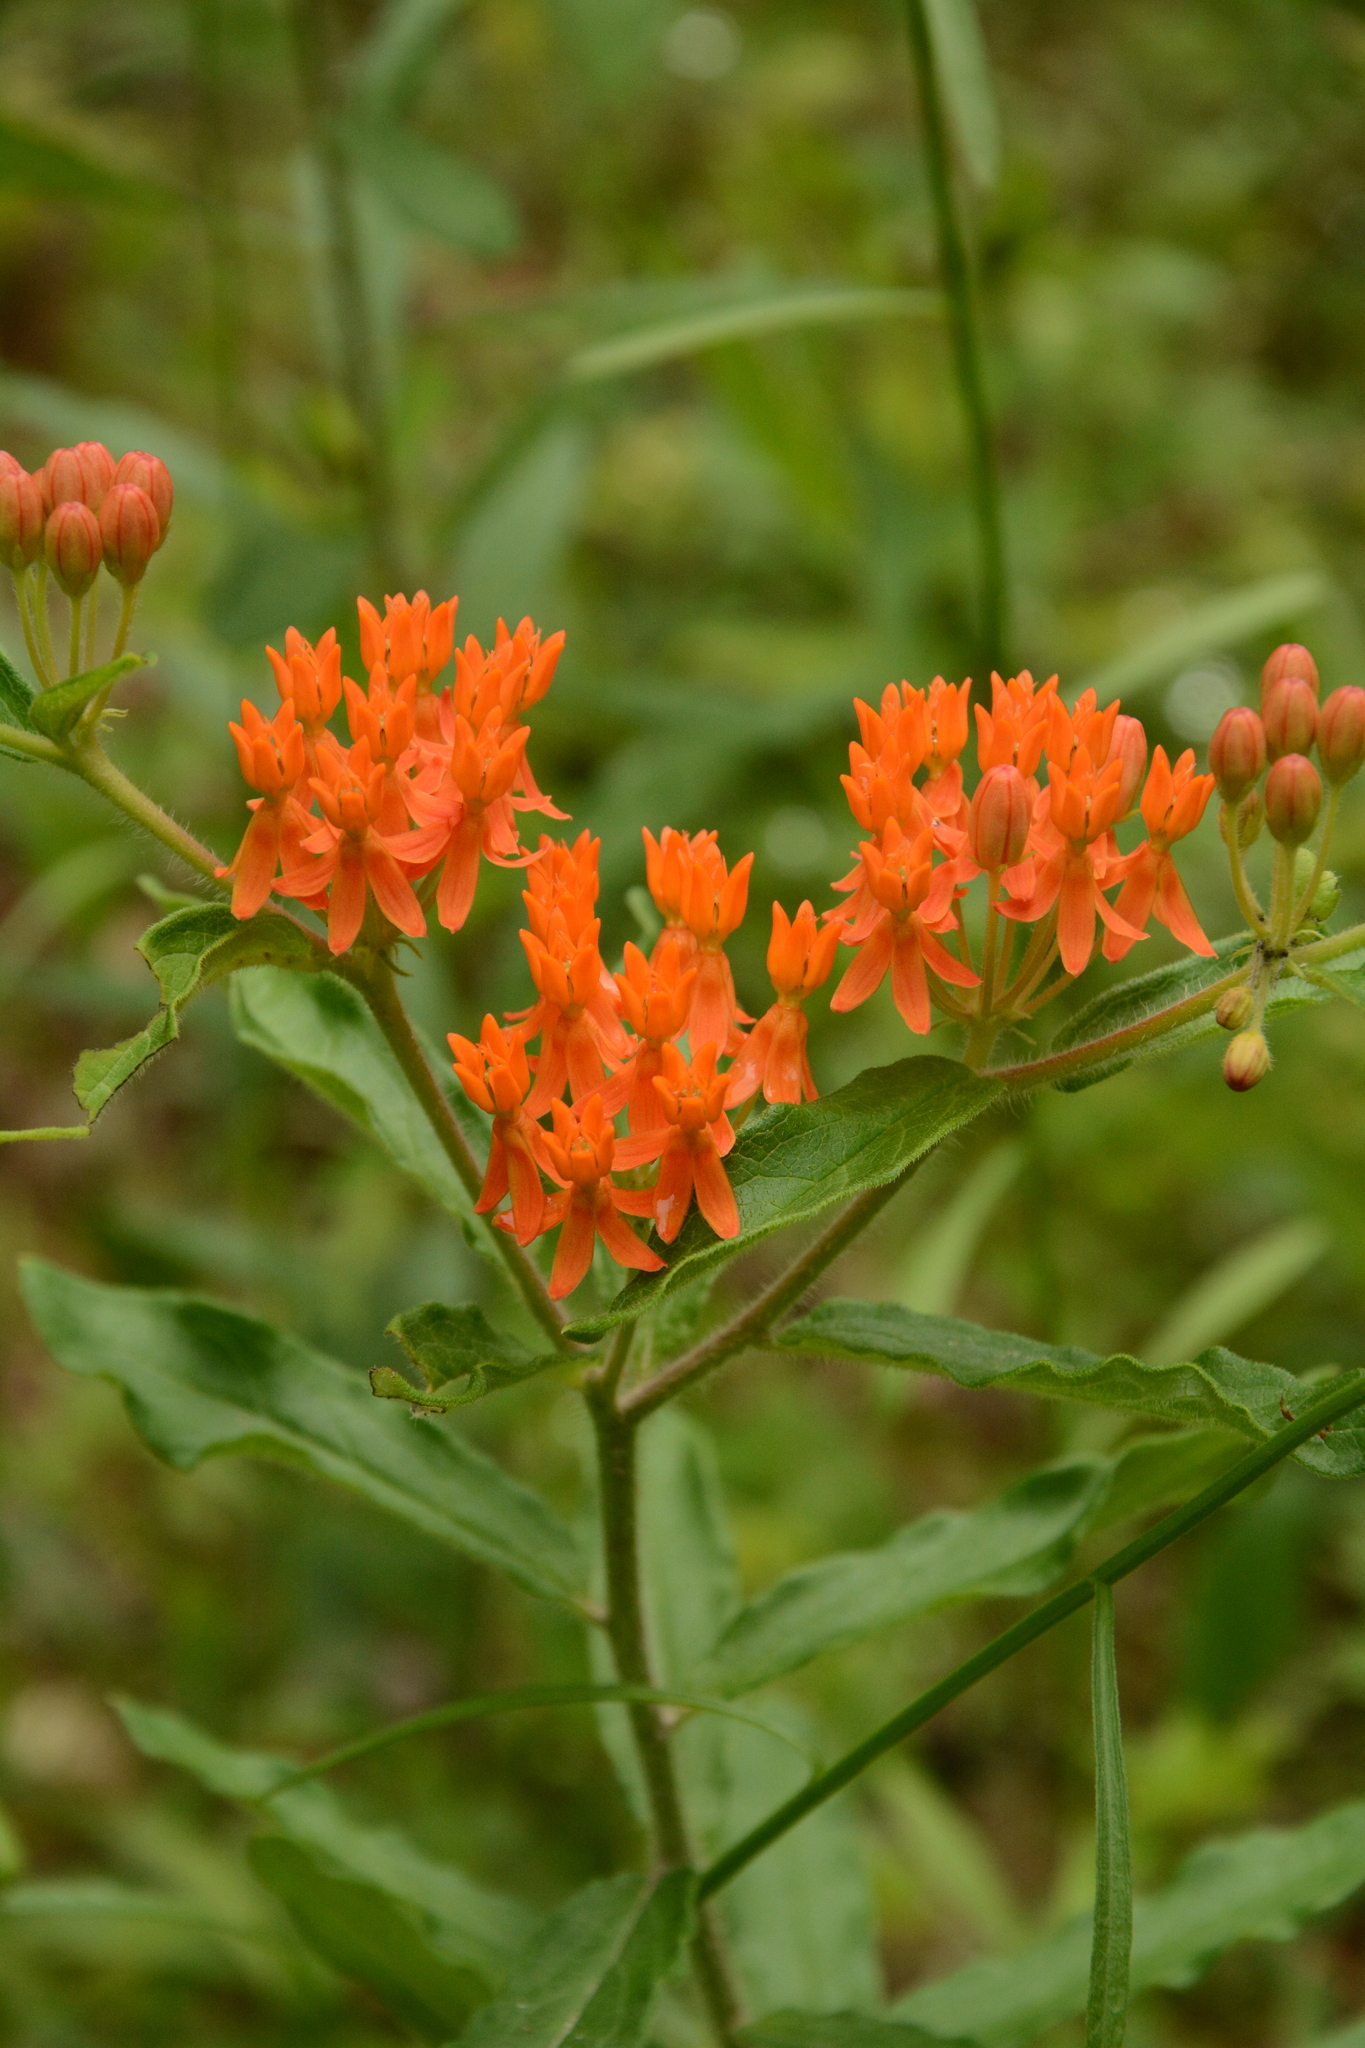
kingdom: Plantae
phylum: Tracheophyta
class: Magnoliopsida
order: Gentianales
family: Apocynaceae
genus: Asclepias
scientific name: Asclepias tuberosa
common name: Butterfly milkweed
